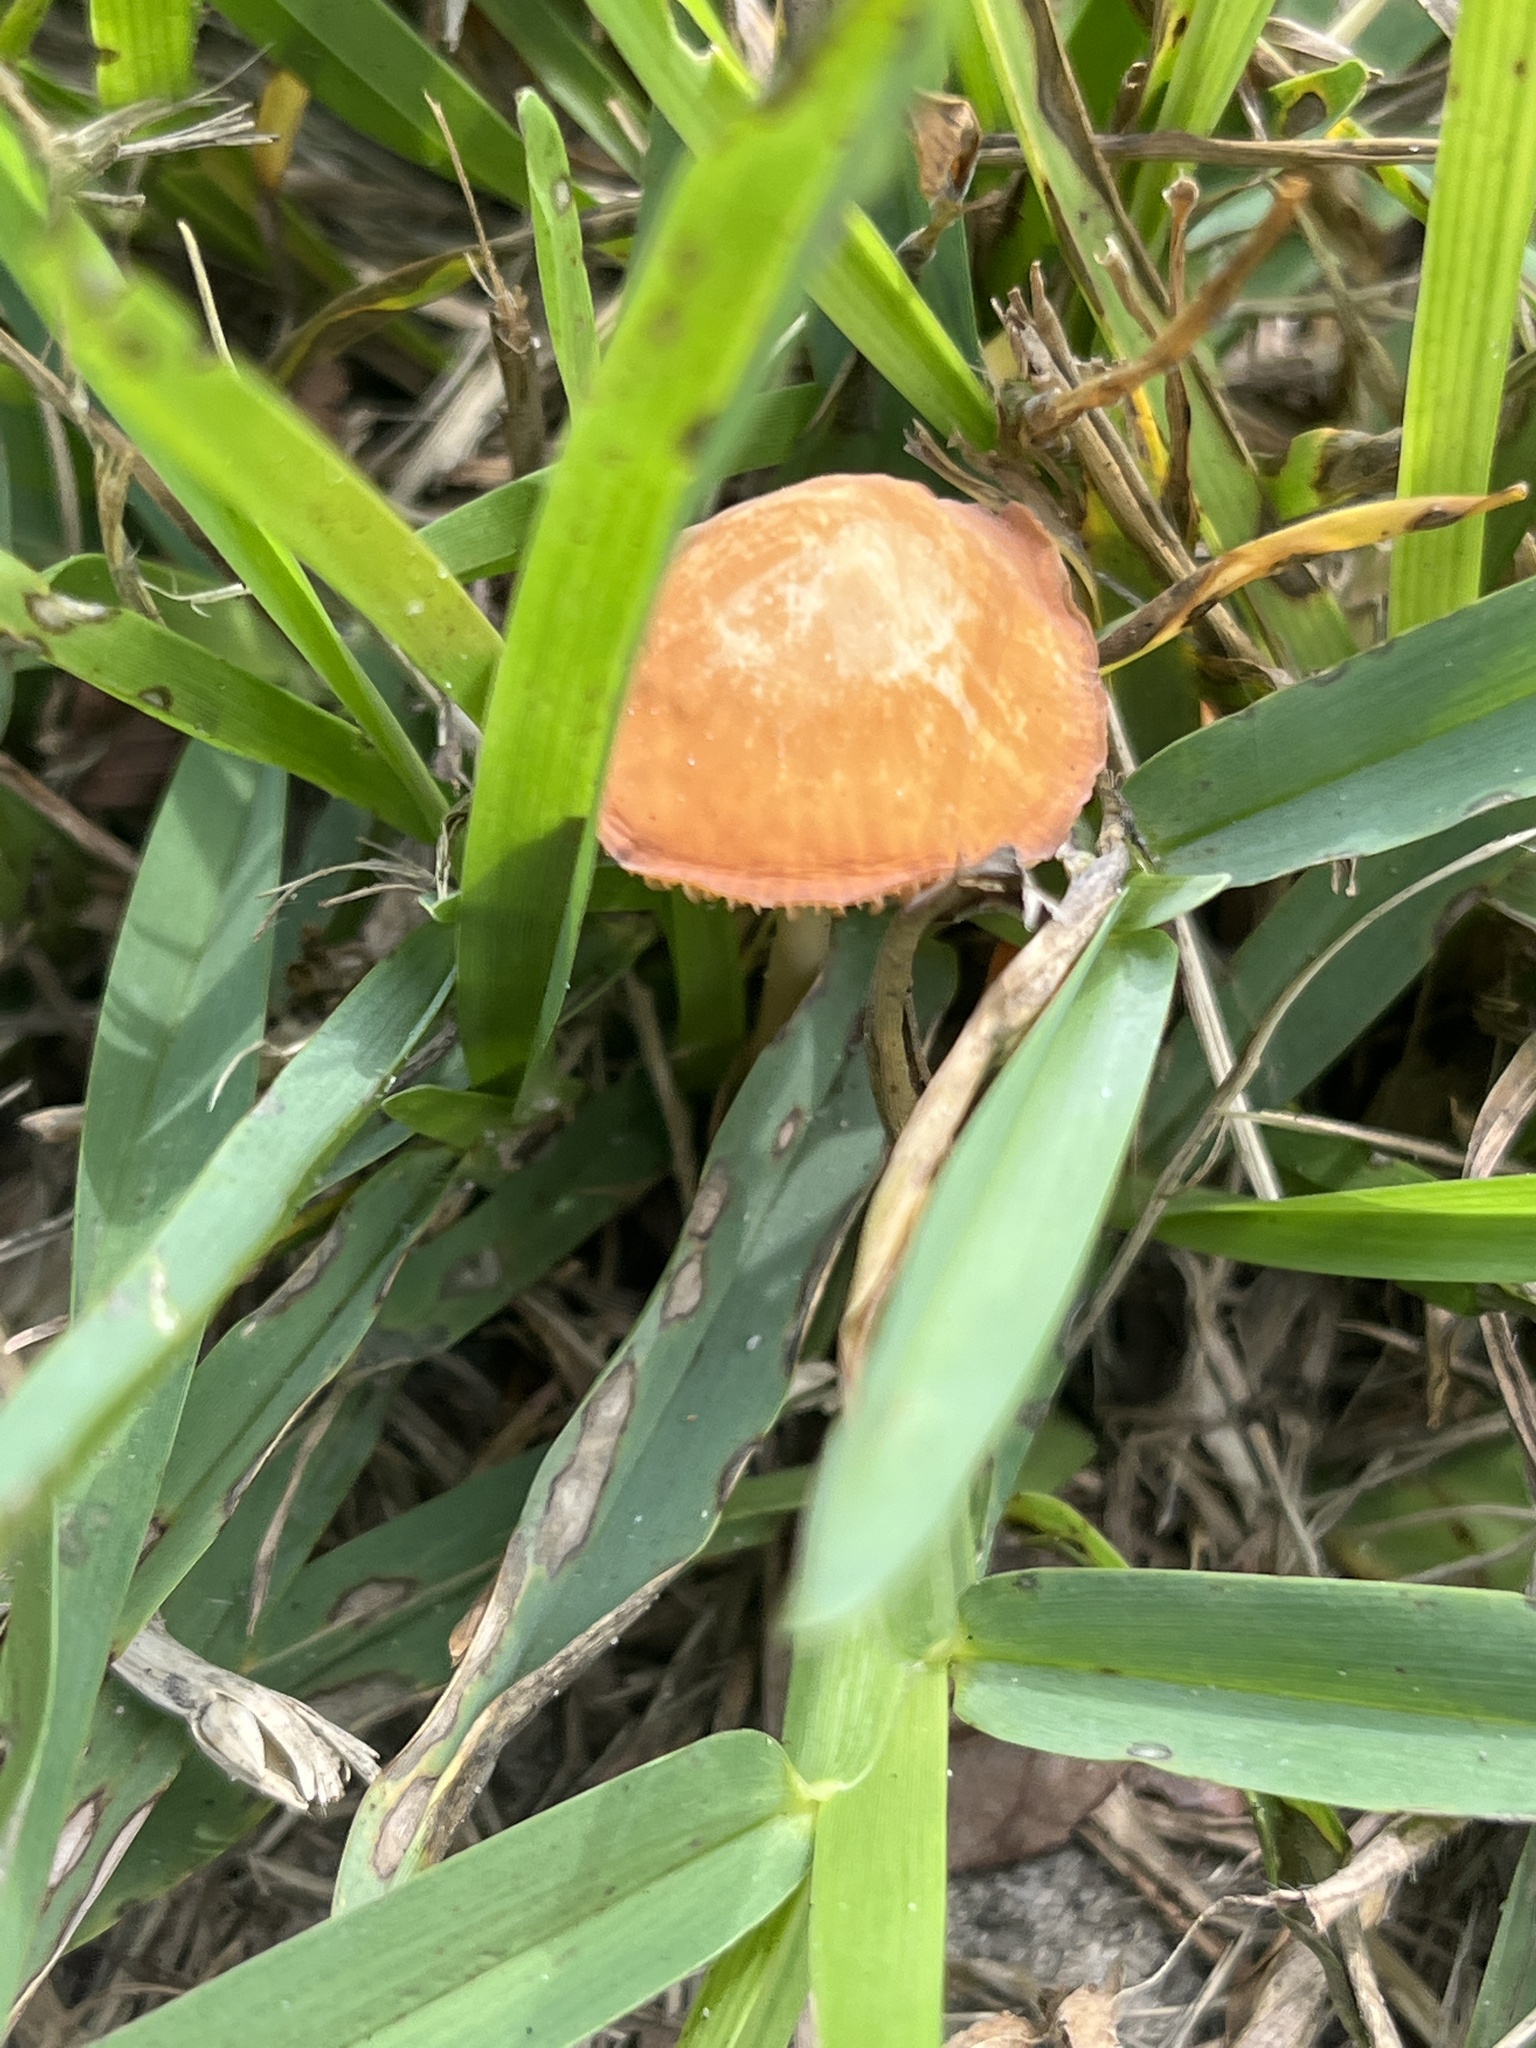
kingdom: Fungi
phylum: Basidiomycota
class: Agaricomycetes
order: Agaricales
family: Marasmiaceae
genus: Marasmius
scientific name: Marasmius vagus
